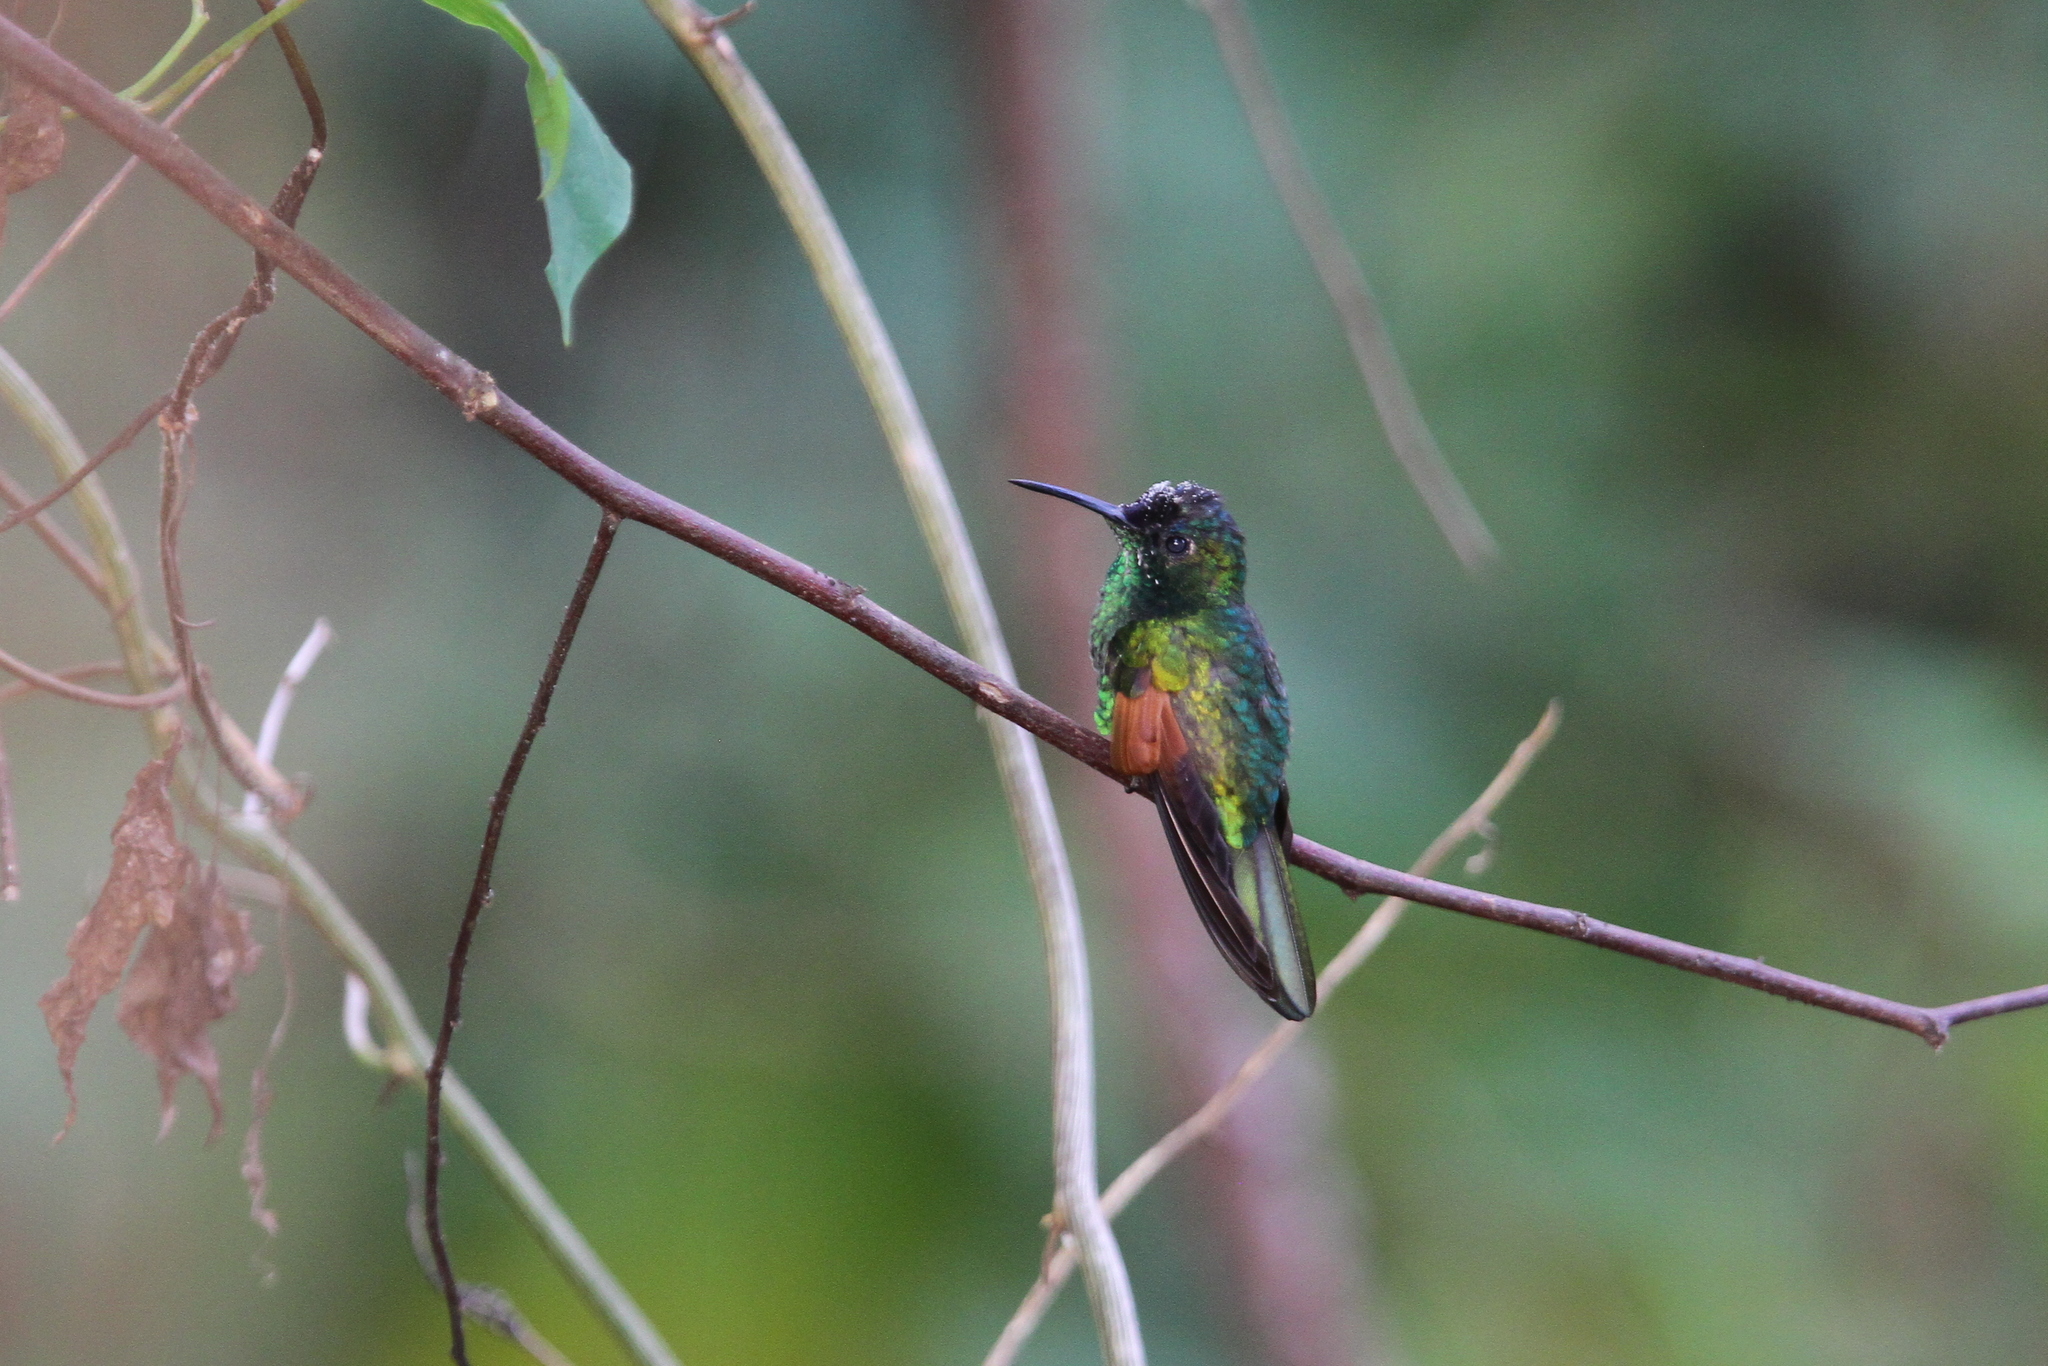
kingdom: Animalia
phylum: Chordata
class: Aves
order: Apodiformes
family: Trochilidae
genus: Eupherusa
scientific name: Eupherusa cyanophrys
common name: Oaxaca hummingbird
